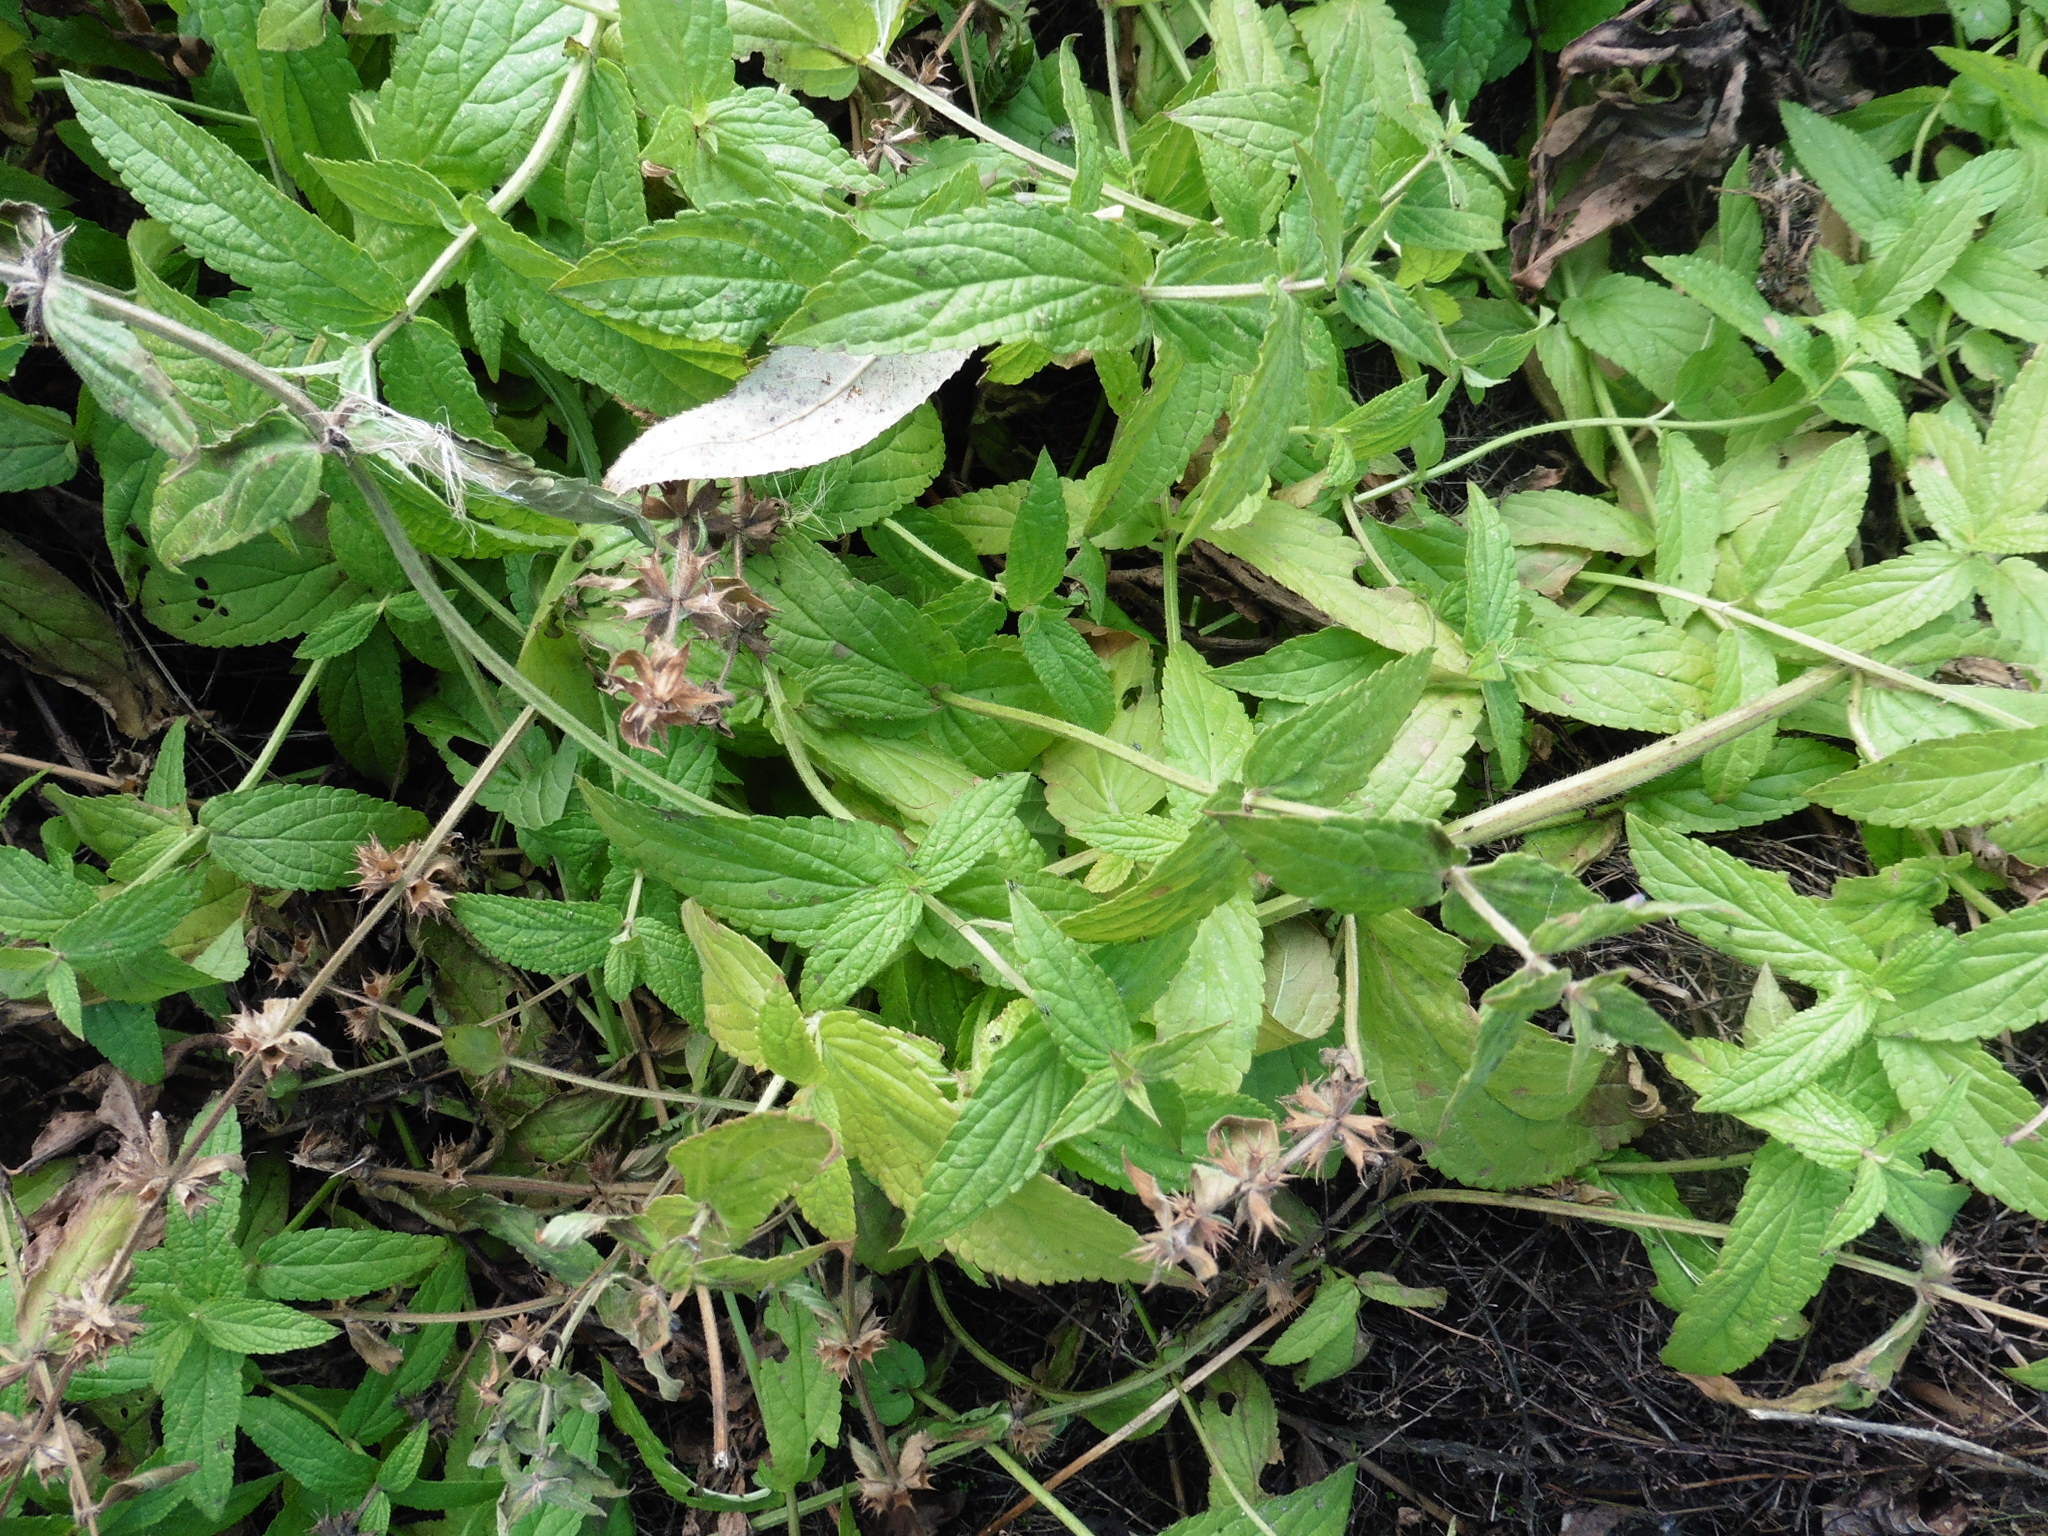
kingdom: Plantae
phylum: Tracheophyta
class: Magnoliopsida
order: Lamiales
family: Lamiaceae
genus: Stachys
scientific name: Stachys palustris
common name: Marsh woundwort
